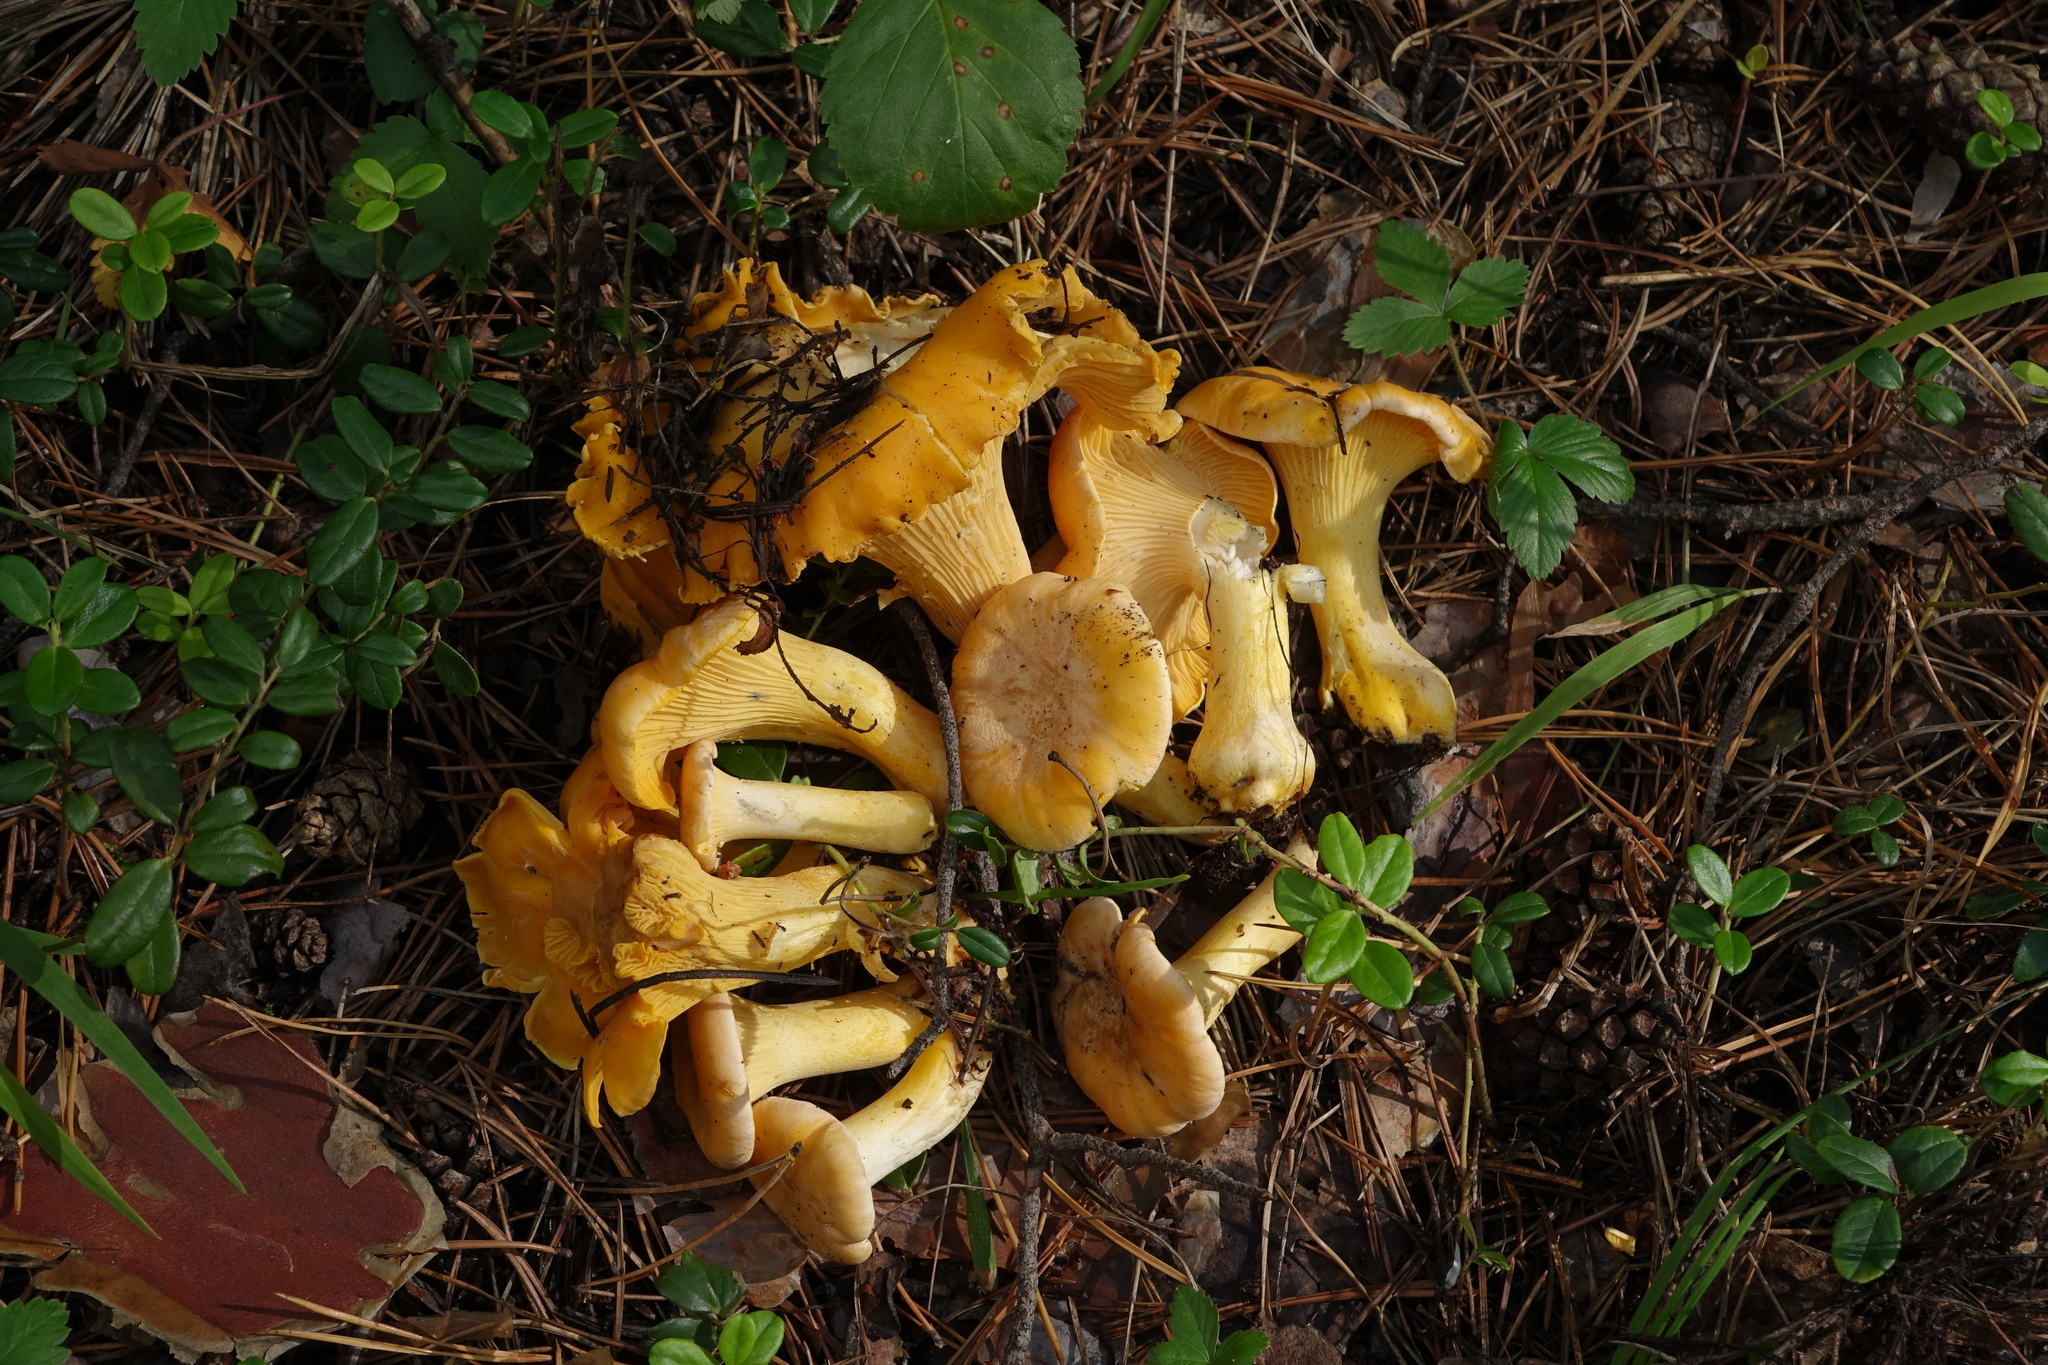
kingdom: Fungi
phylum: Basidiomycota
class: Agaricomycetes
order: Cantharellales
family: Hydnaceae
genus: Cantharellus
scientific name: Cantharellus cibarius
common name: Chanterelle
